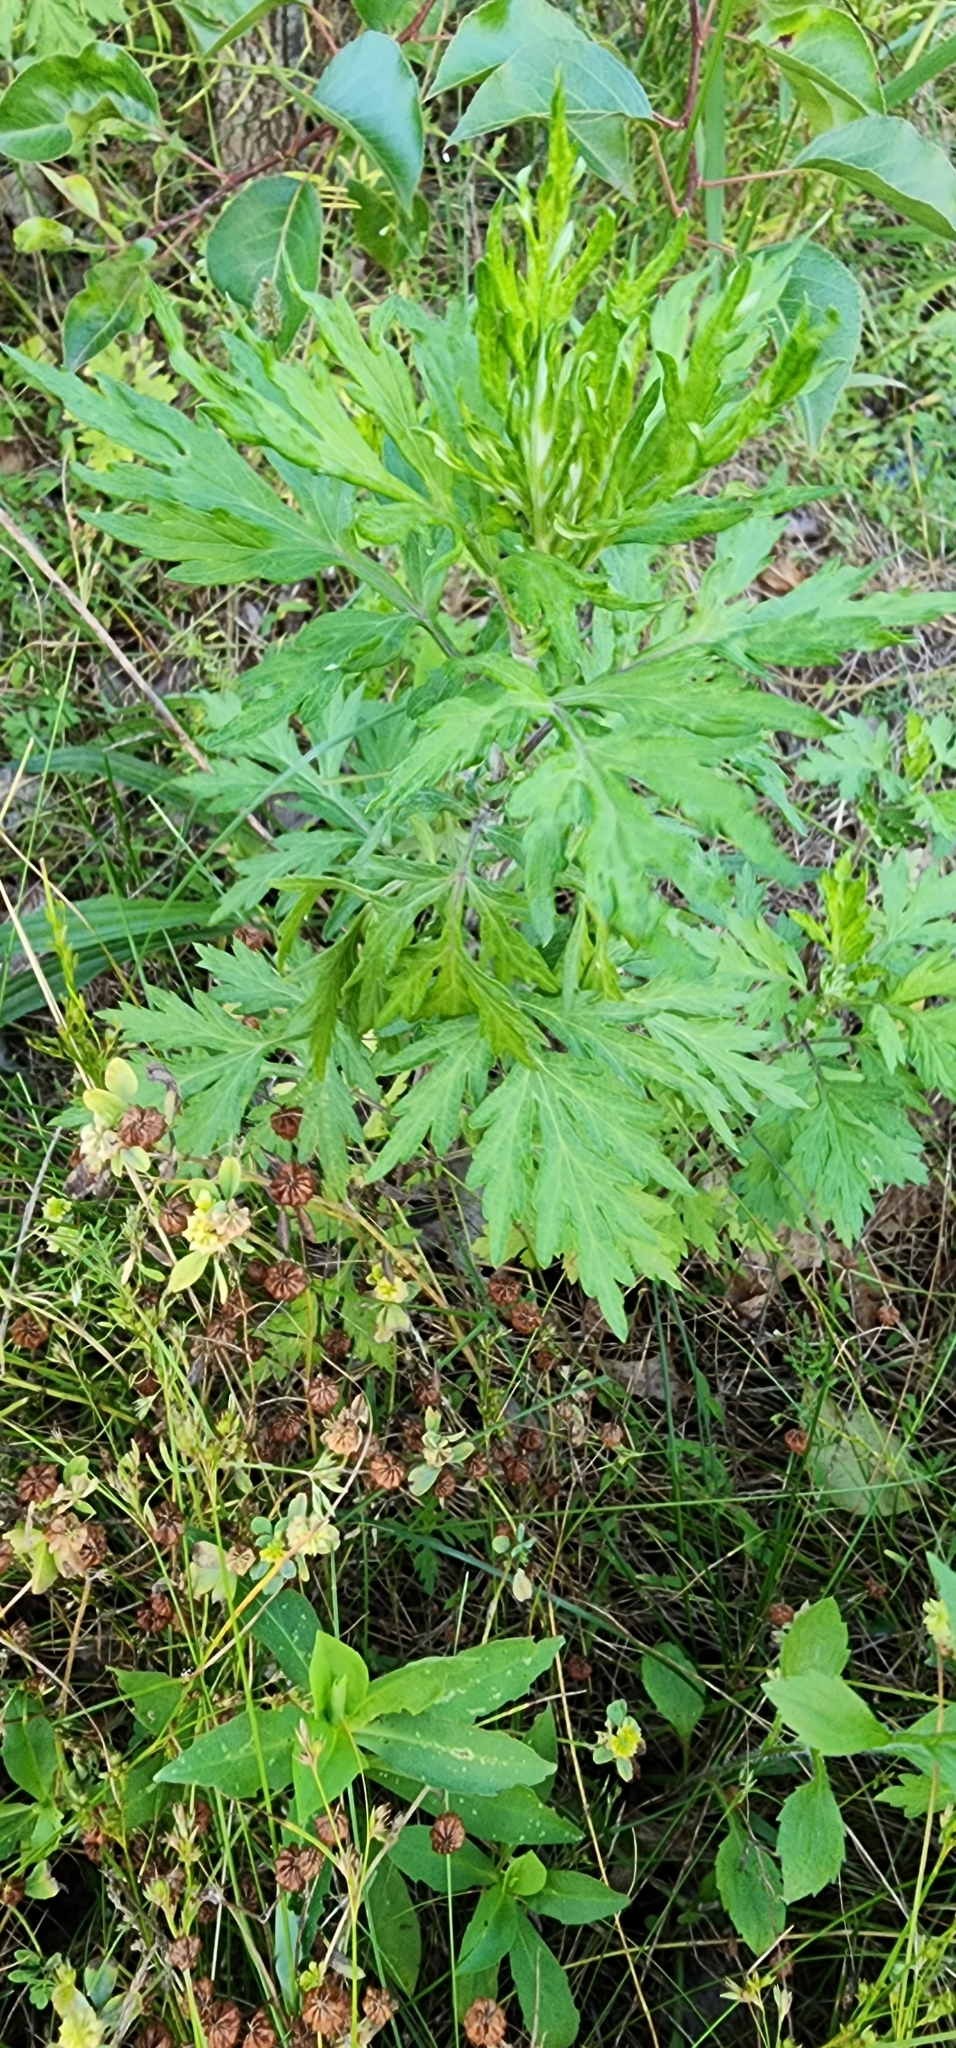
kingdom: Plantae
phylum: Tracheophyta
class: Magnoliopsida
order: Asterales
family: Asteraceae
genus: Artemisia
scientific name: Artemisia vulgaris
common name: Mugwort
